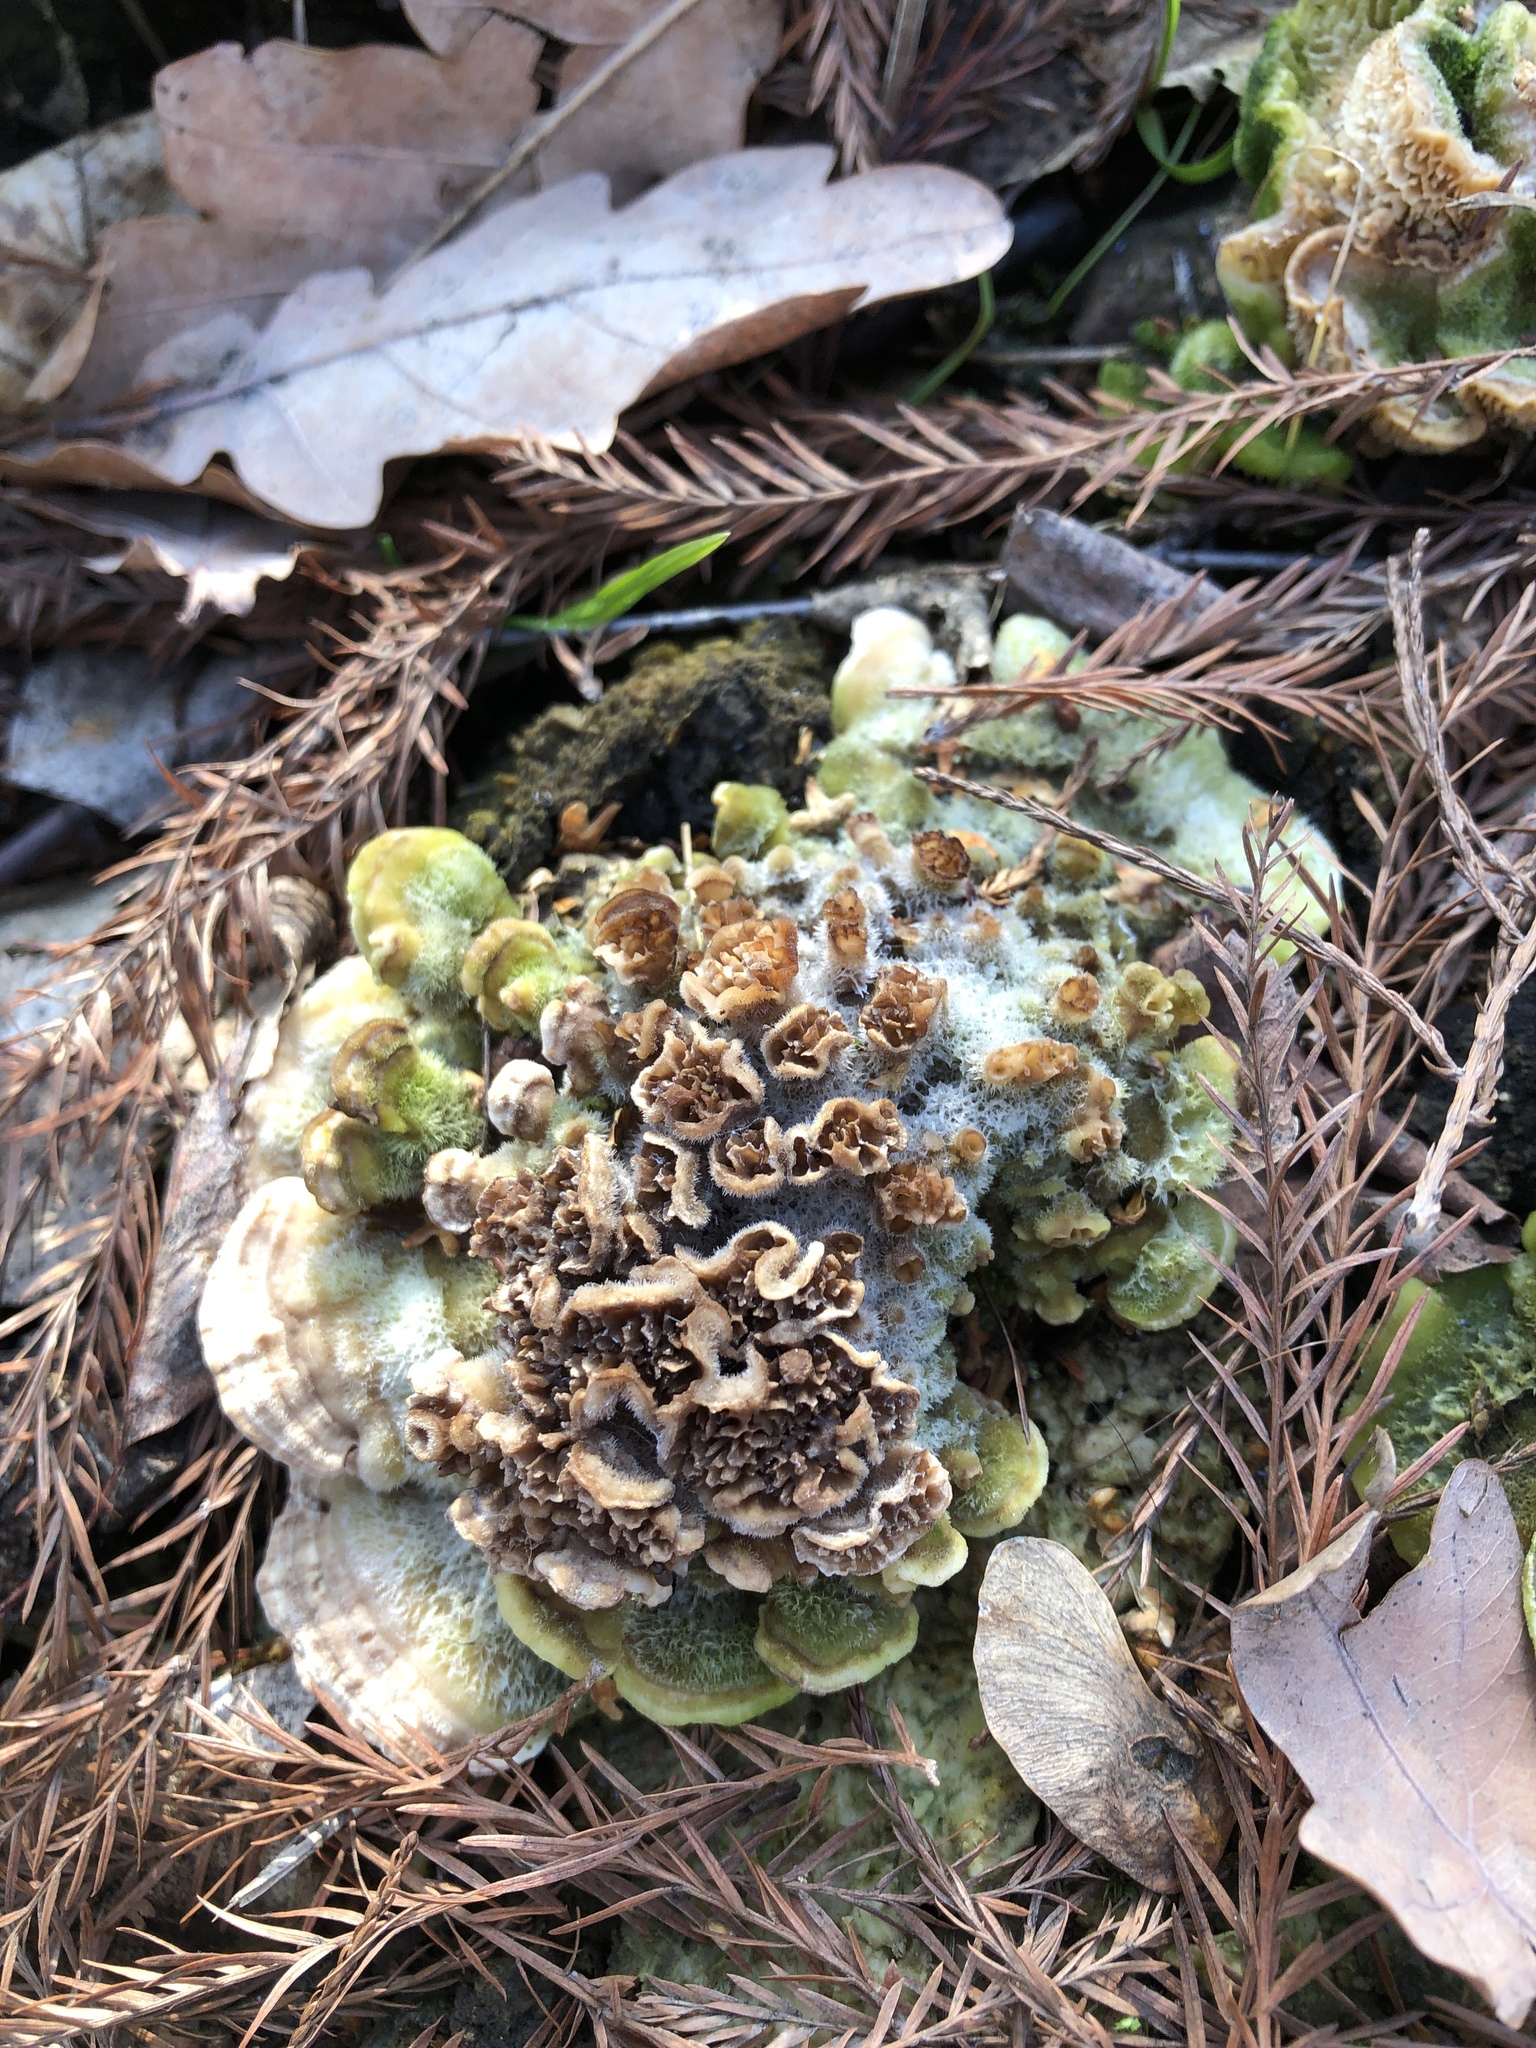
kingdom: Fungi
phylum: Basidiomycota
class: Agaricomycetes
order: Polyporales
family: Polyporaceae
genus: Trametes
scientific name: Trametes versicolor
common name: Turkeytail
